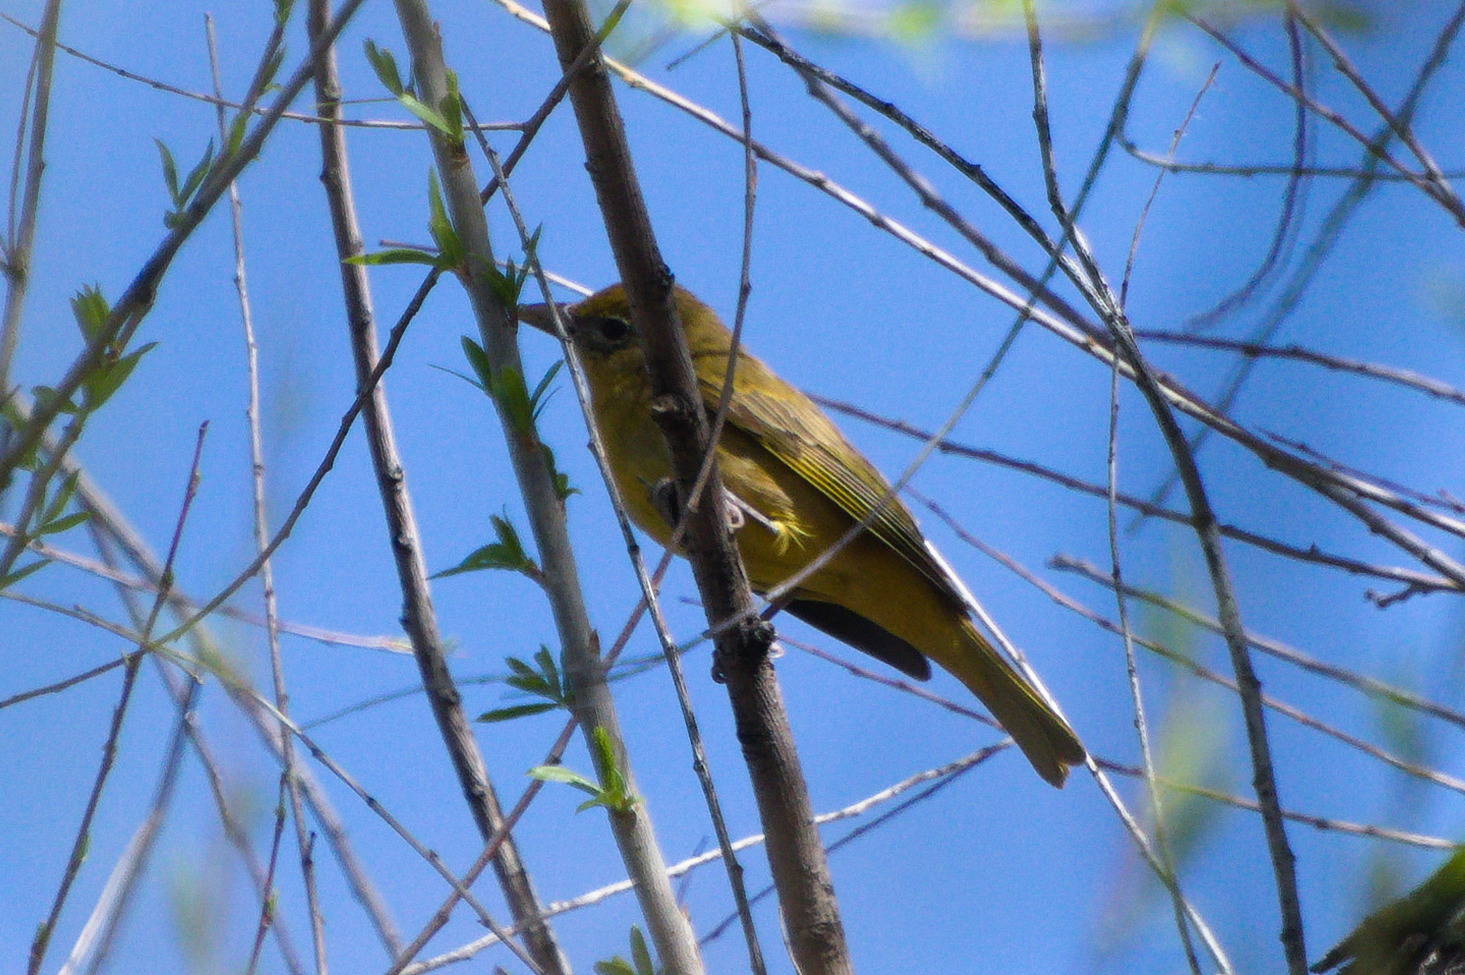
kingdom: Animalia
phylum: Chordata
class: Aves
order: Passeriformes
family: Cardinalidae
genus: Piranga
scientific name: Piranga rubra
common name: Summer tanager
